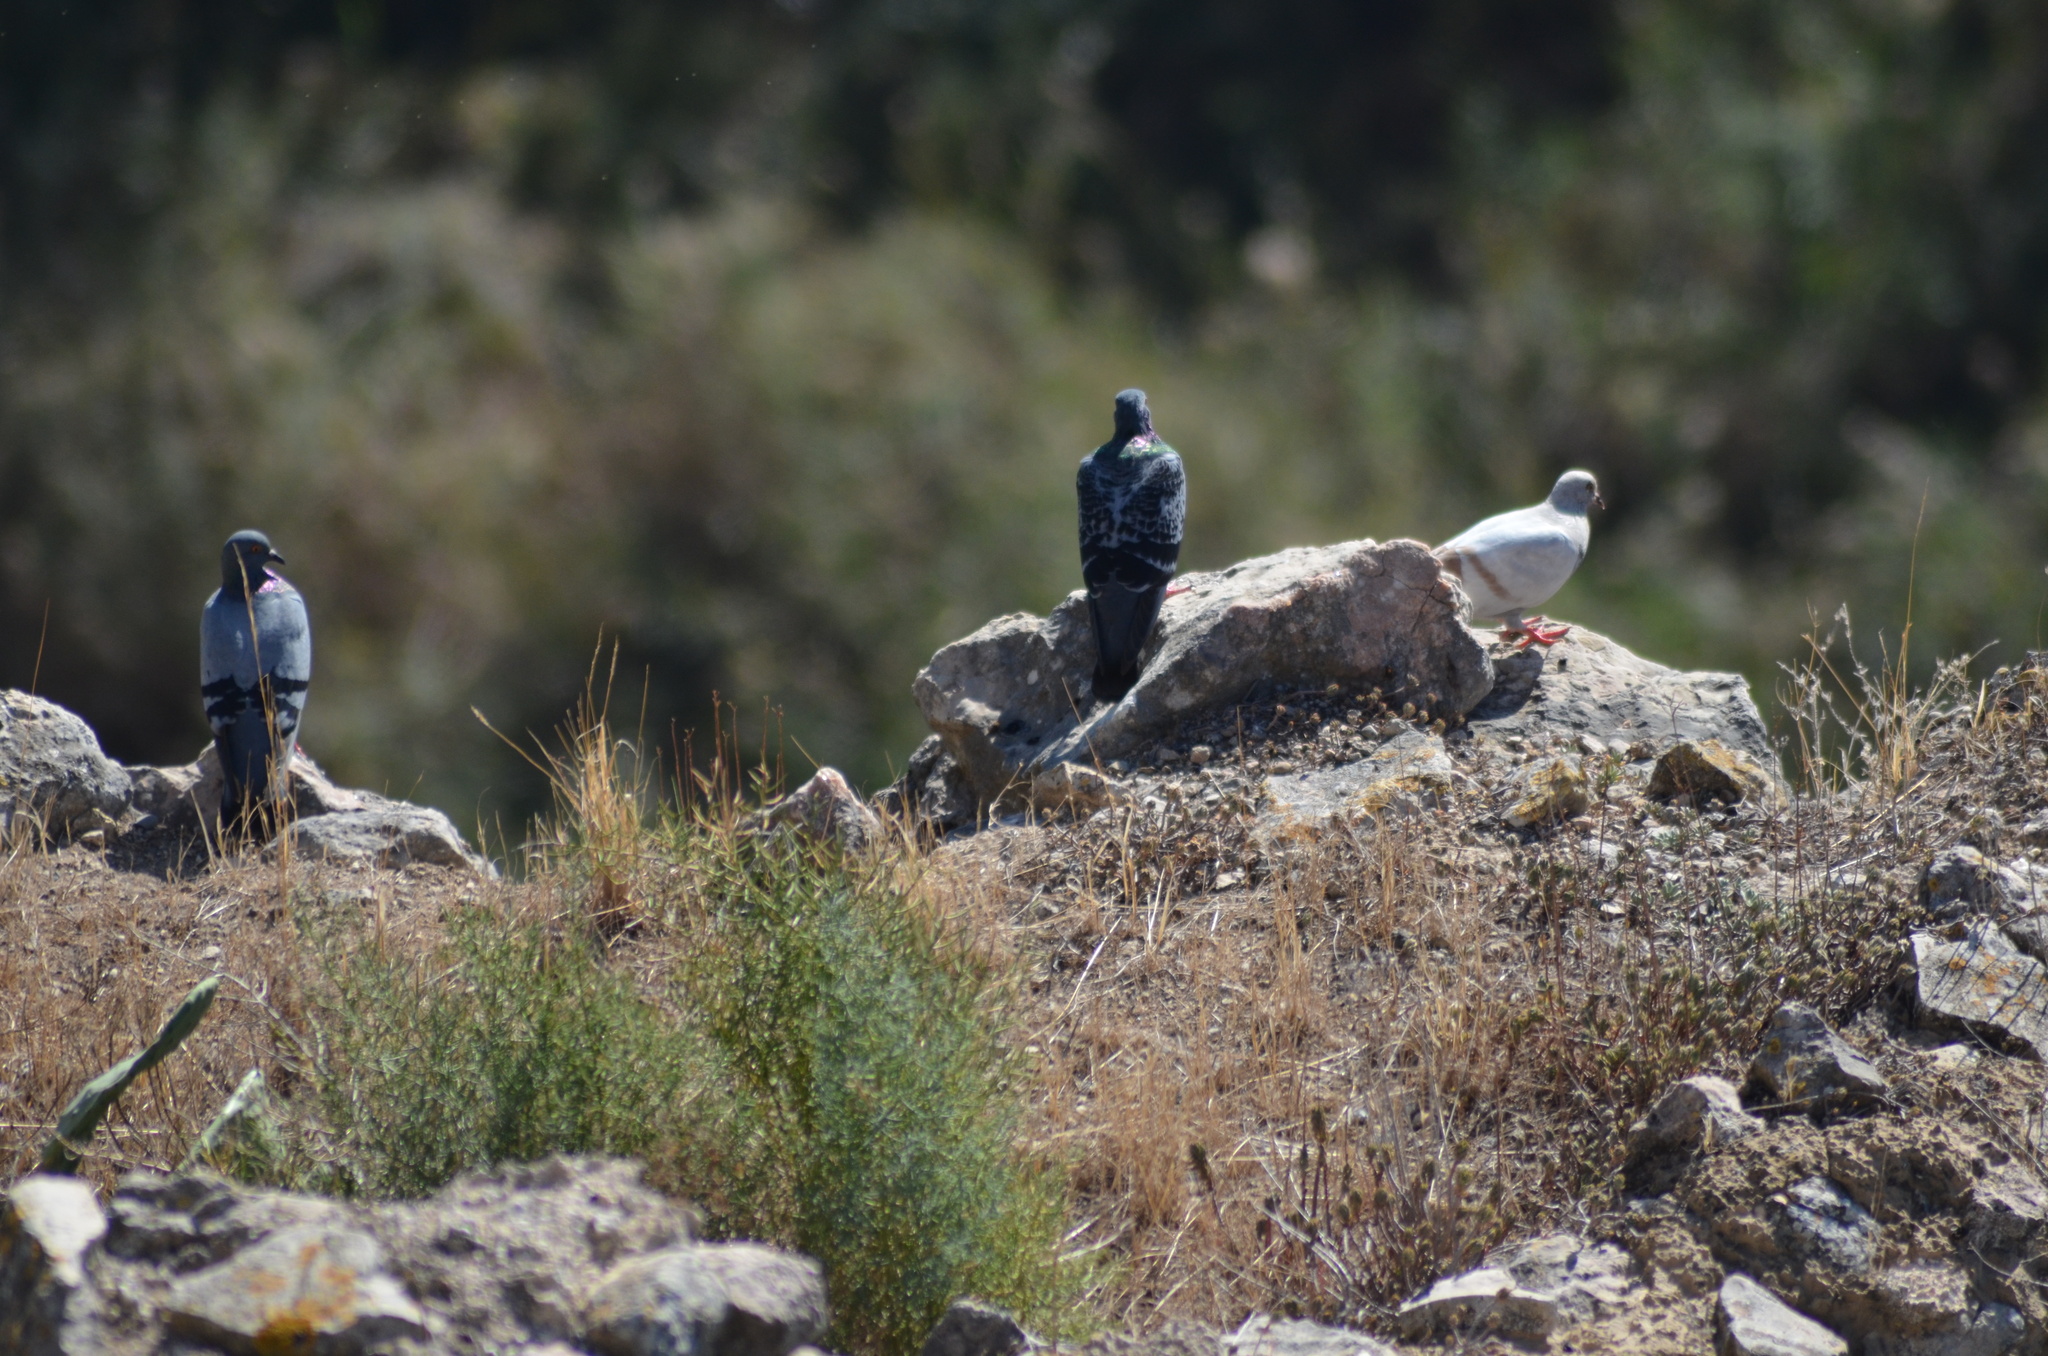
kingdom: Animalia
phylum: Chordata
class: Aves
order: Columbiformes
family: Columbidae
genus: Columba
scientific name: Columba livia
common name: Rock pigeon
